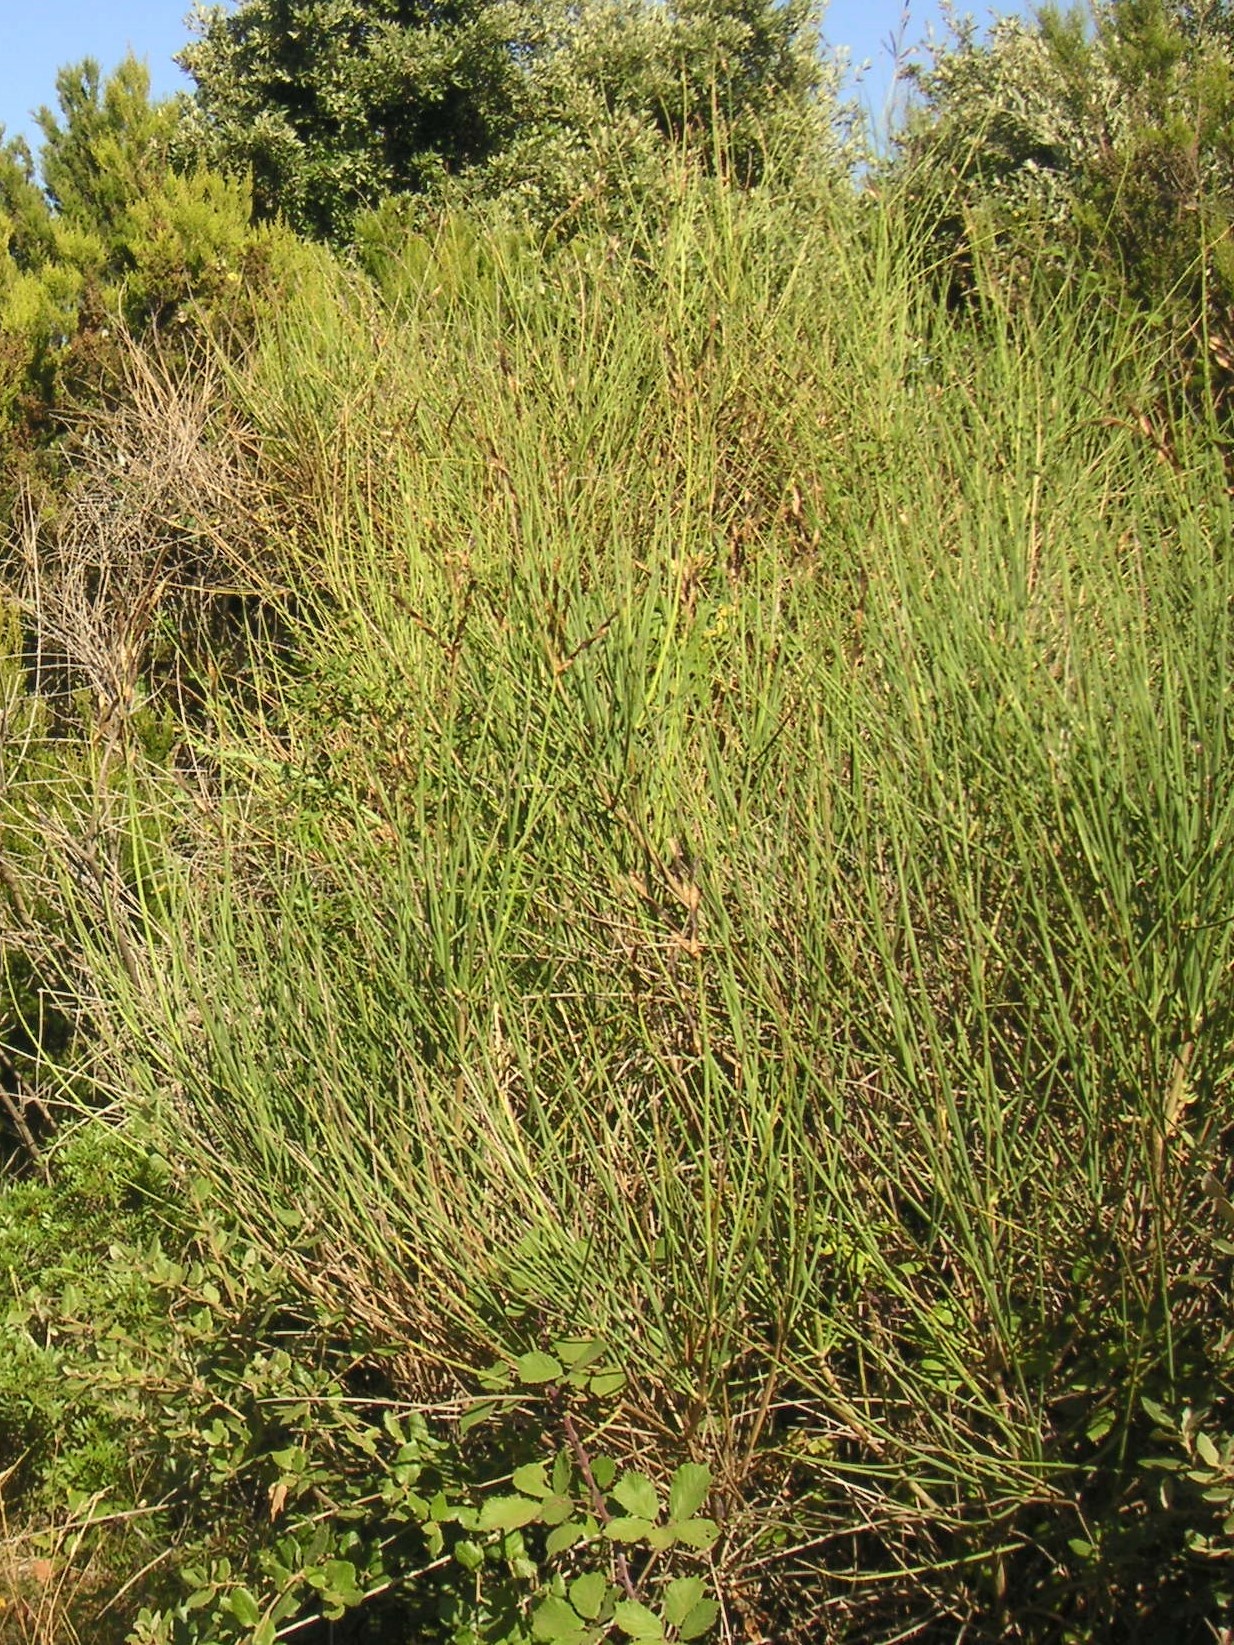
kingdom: Plantae
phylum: Tracheophyta
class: Magnoliopsida
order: Fabales
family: Fabaceae
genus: Spartium
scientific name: Spartium junceum
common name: Spanish broom
